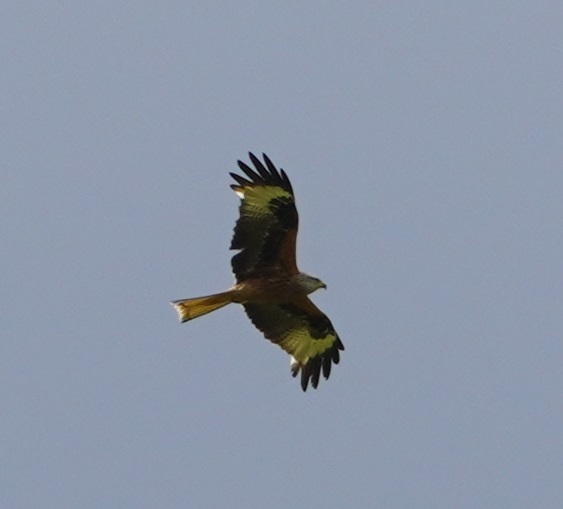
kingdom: Animalia
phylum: Chordata
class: Aves
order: Accipitriformes
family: Accipitridae
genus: Milvus
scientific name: Milvus milvus
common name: Red kite
